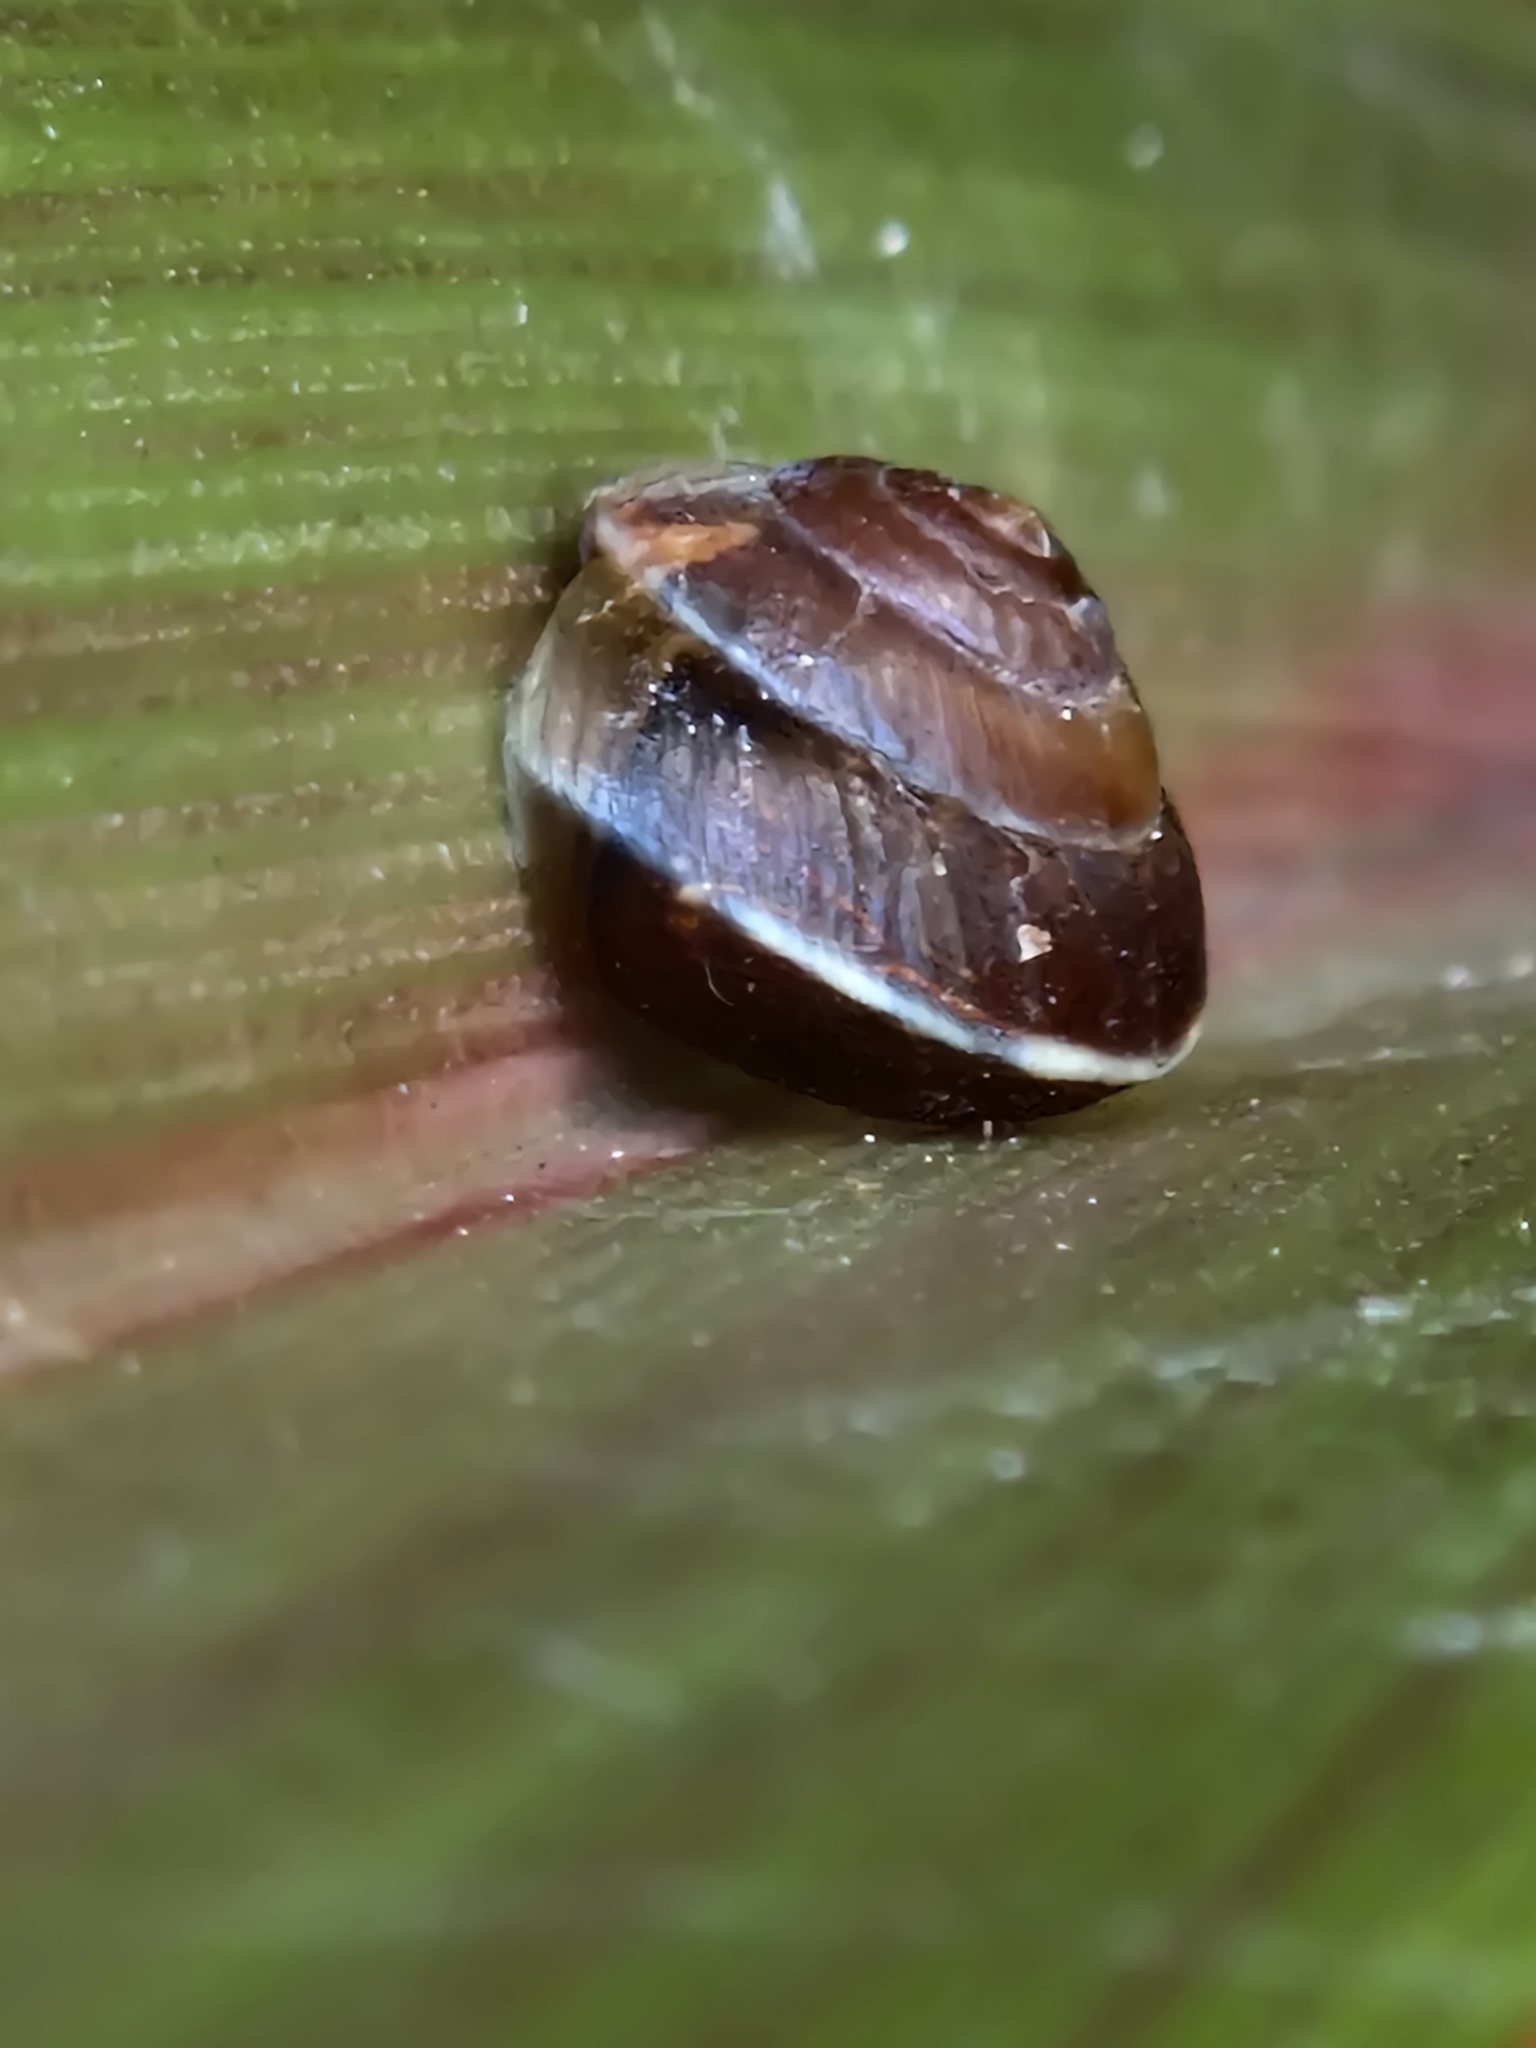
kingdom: Animalia
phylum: Mollusca
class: Gastropoda
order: Stylommatophora
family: Hygromiidae
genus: Hygromia
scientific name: Hygromia cinctella
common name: Girdled snail
